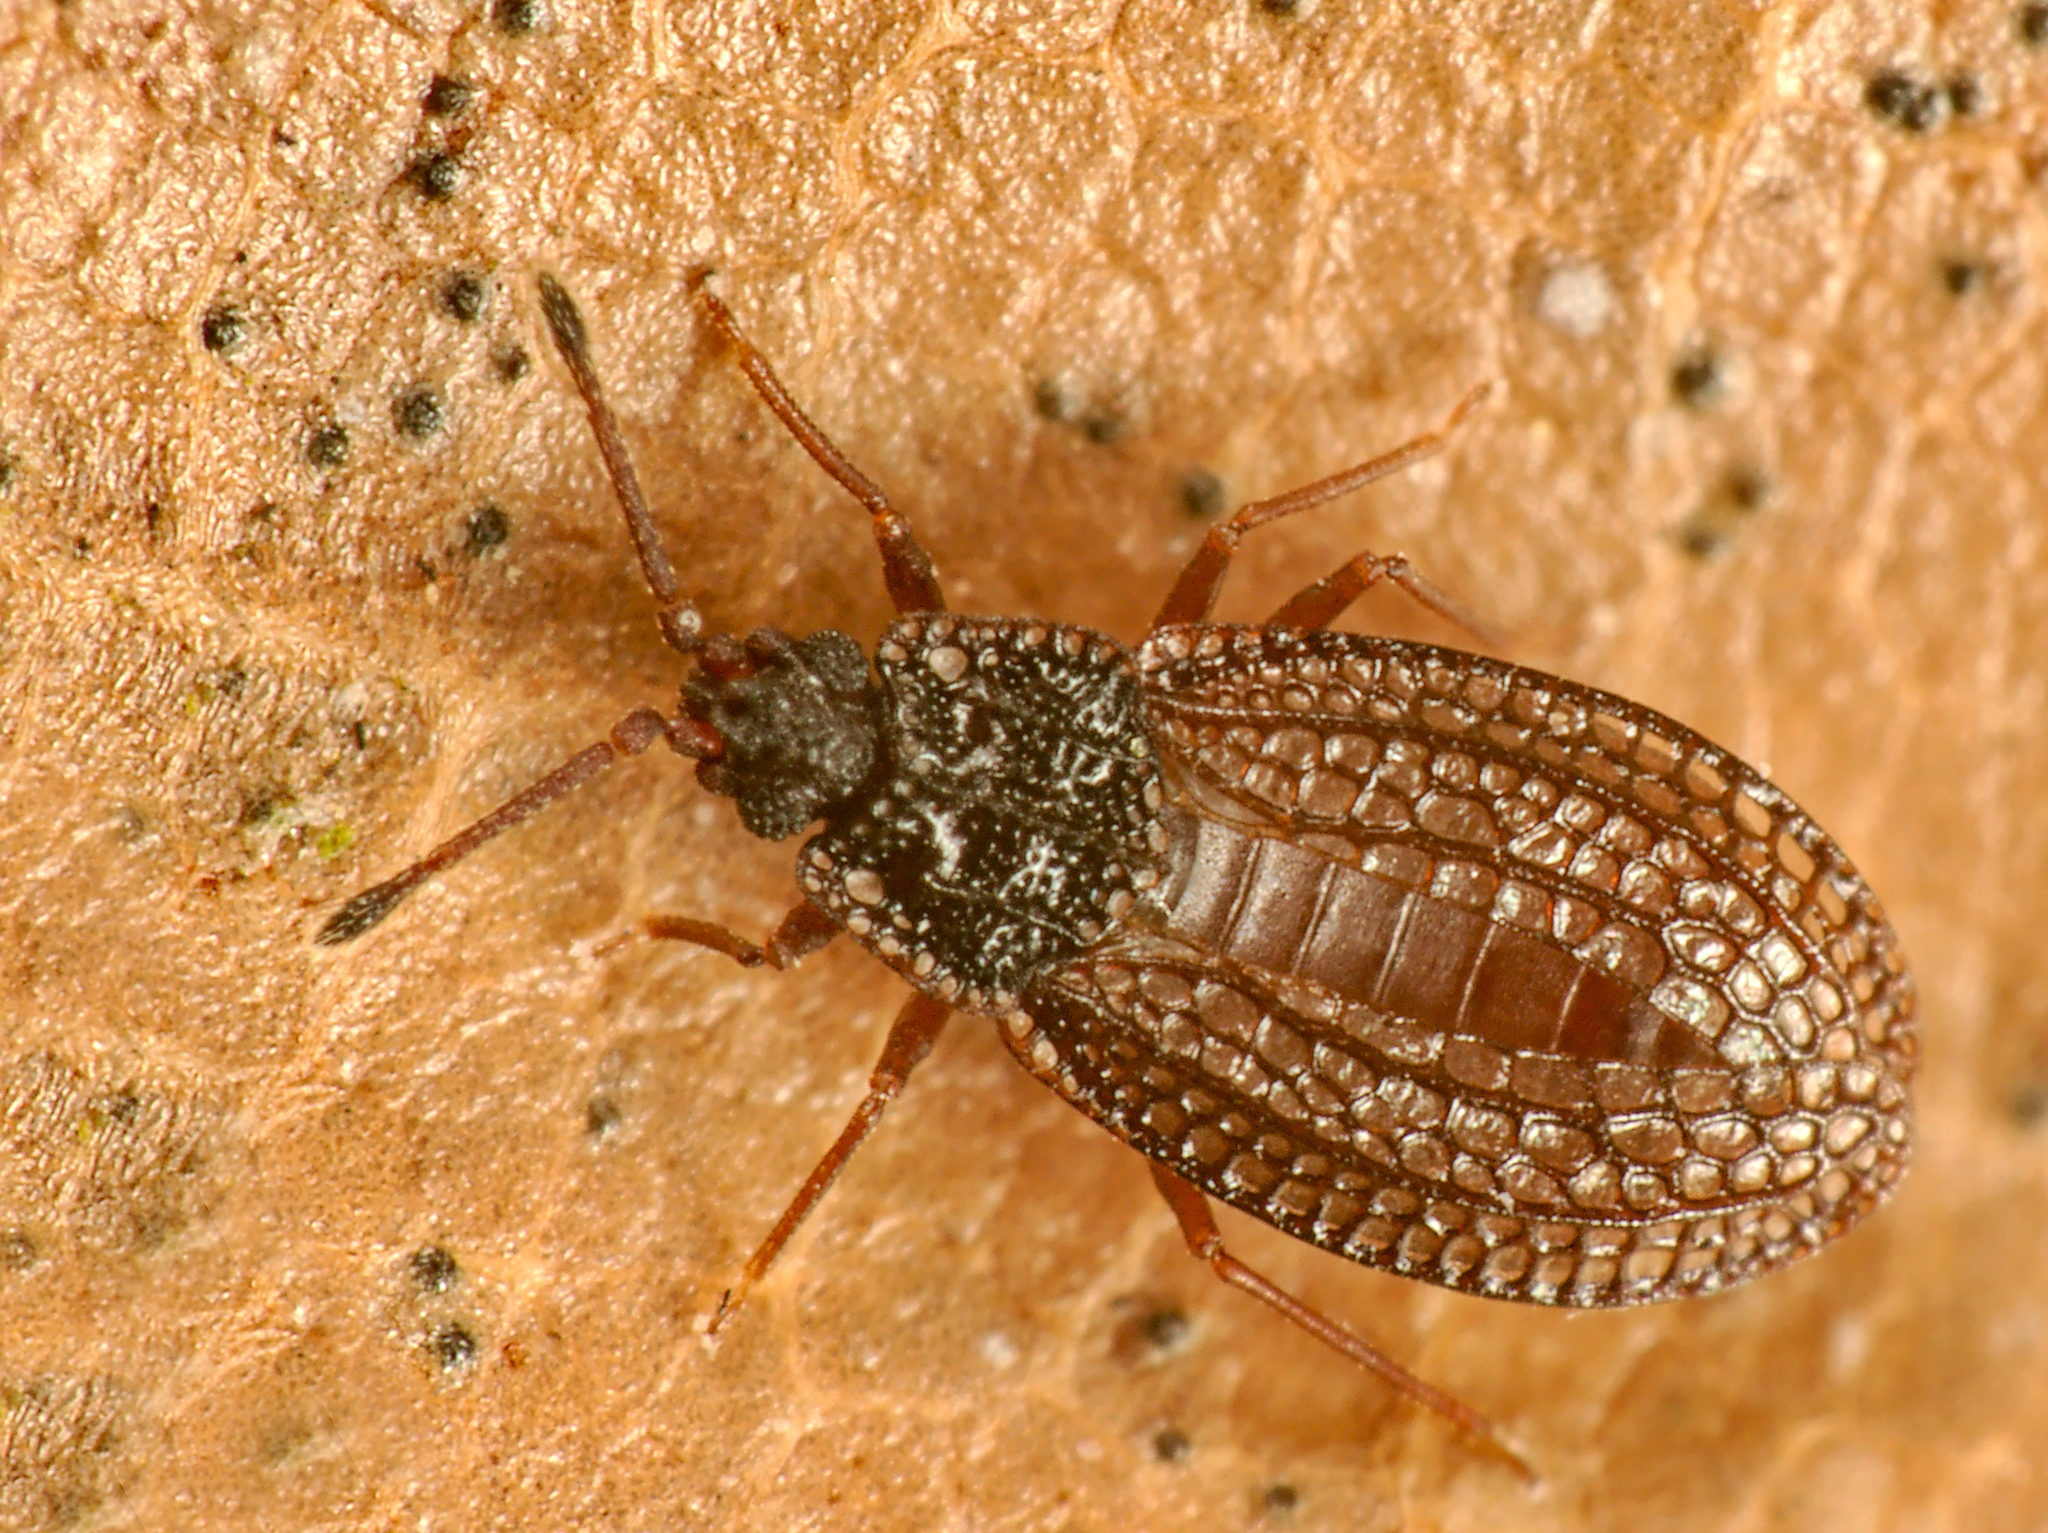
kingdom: Animalia
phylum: Arthropoda
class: Insecta
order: Hemiptera
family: Tingidae
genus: Campylosteira
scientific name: Campylosteira verna
